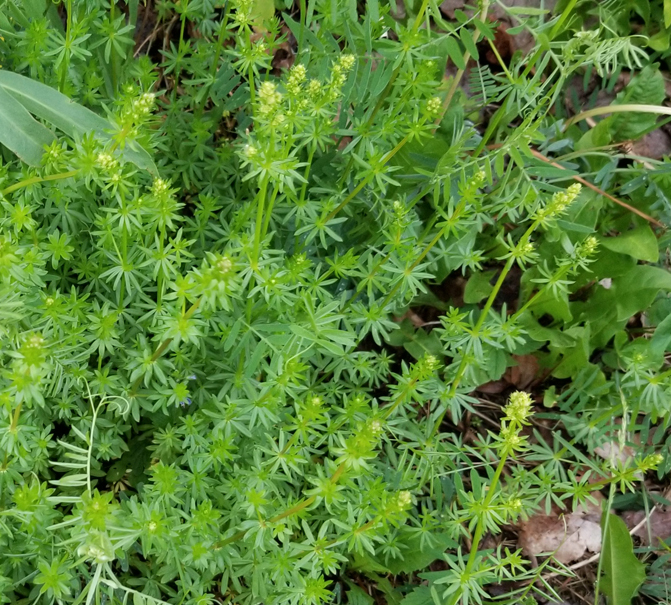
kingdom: Plantae
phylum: Tracheophyta
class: Magnoliopsida
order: Gentianales
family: Rubiaceae
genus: Galium
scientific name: Galium mollugo
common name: Hedge bedstraw
